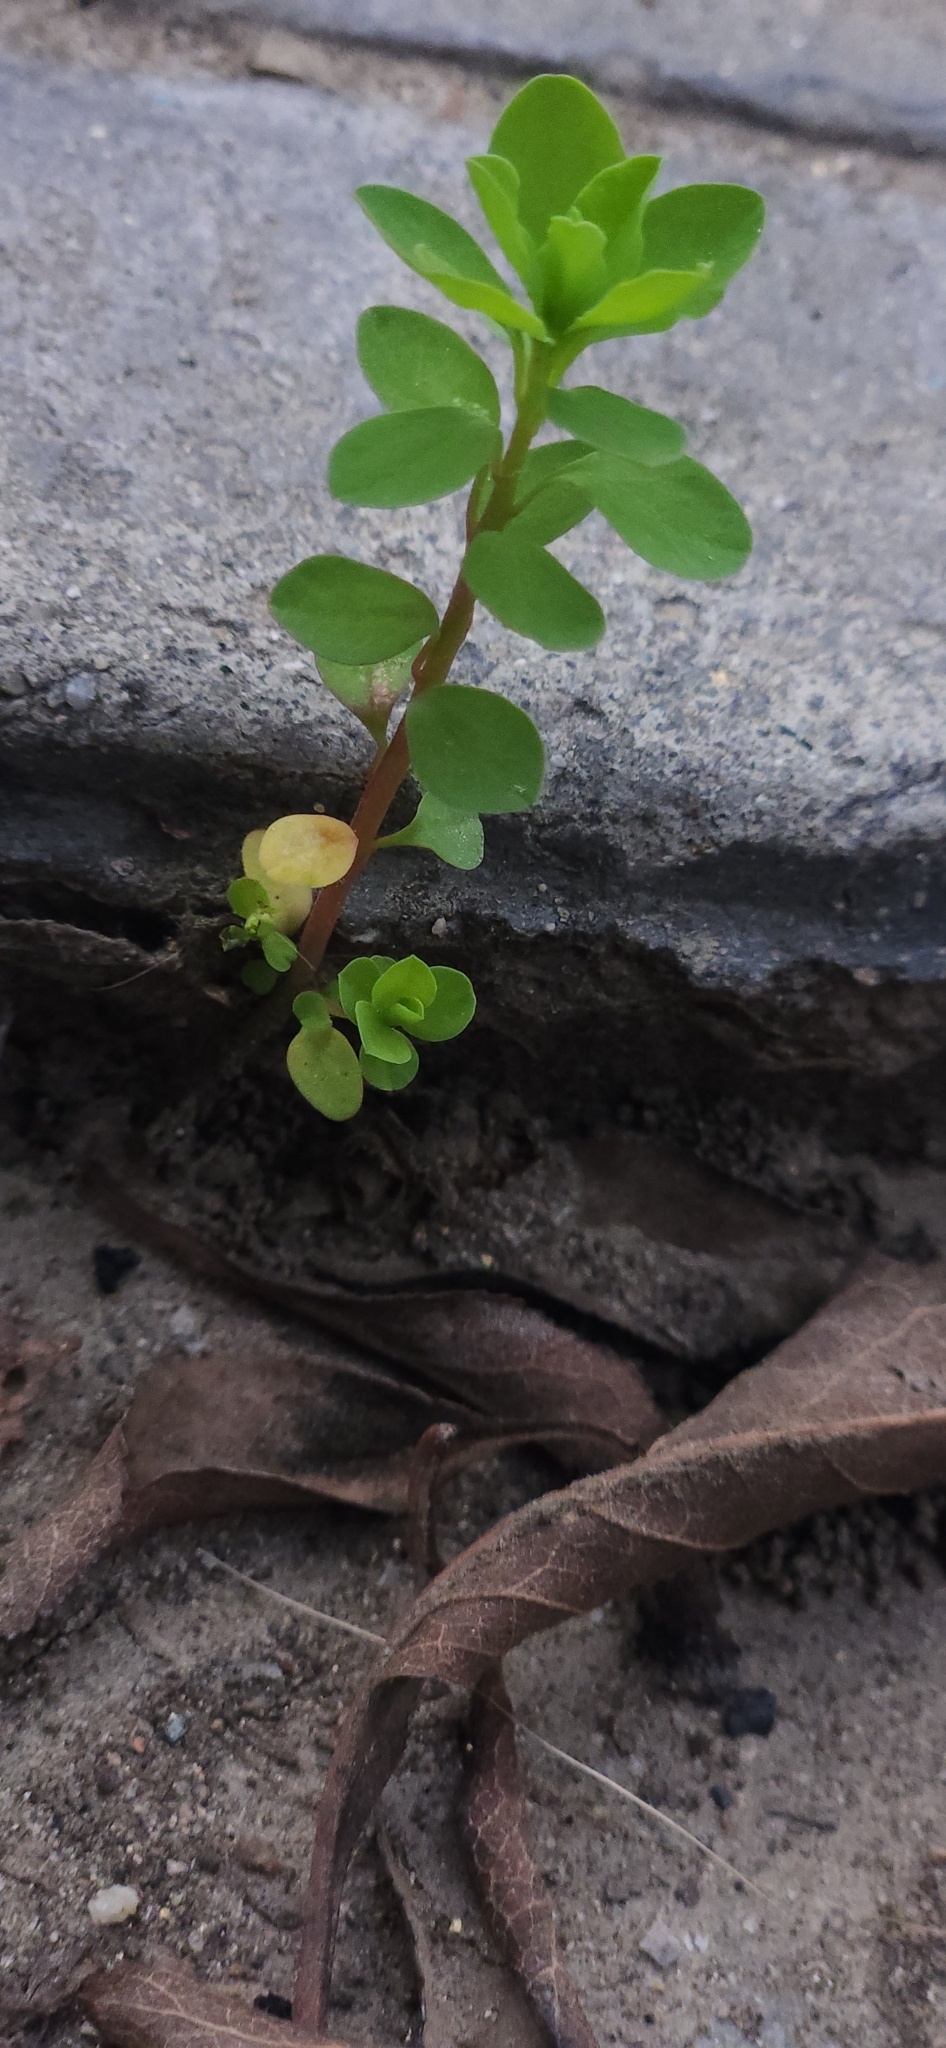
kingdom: Plantae
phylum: Tracheophyta
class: Magnoliopsida
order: Malpighiales
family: Euphorbiaceae
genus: Euphorbia
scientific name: Euphorbia peplus
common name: Petty spurge
